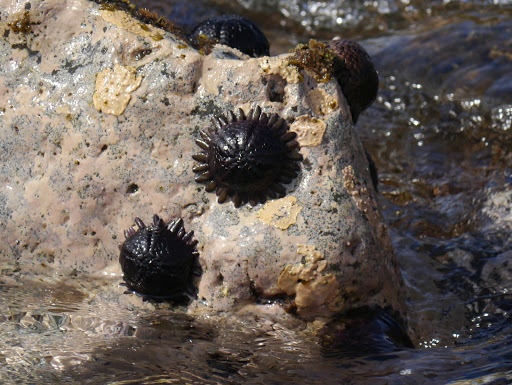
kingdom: Animalia
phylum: Echinodermata
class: Echinoidea
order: Camarodonta
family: Echinometridae
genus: Colobocentrotus
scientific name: Colobocentrotus atratus
